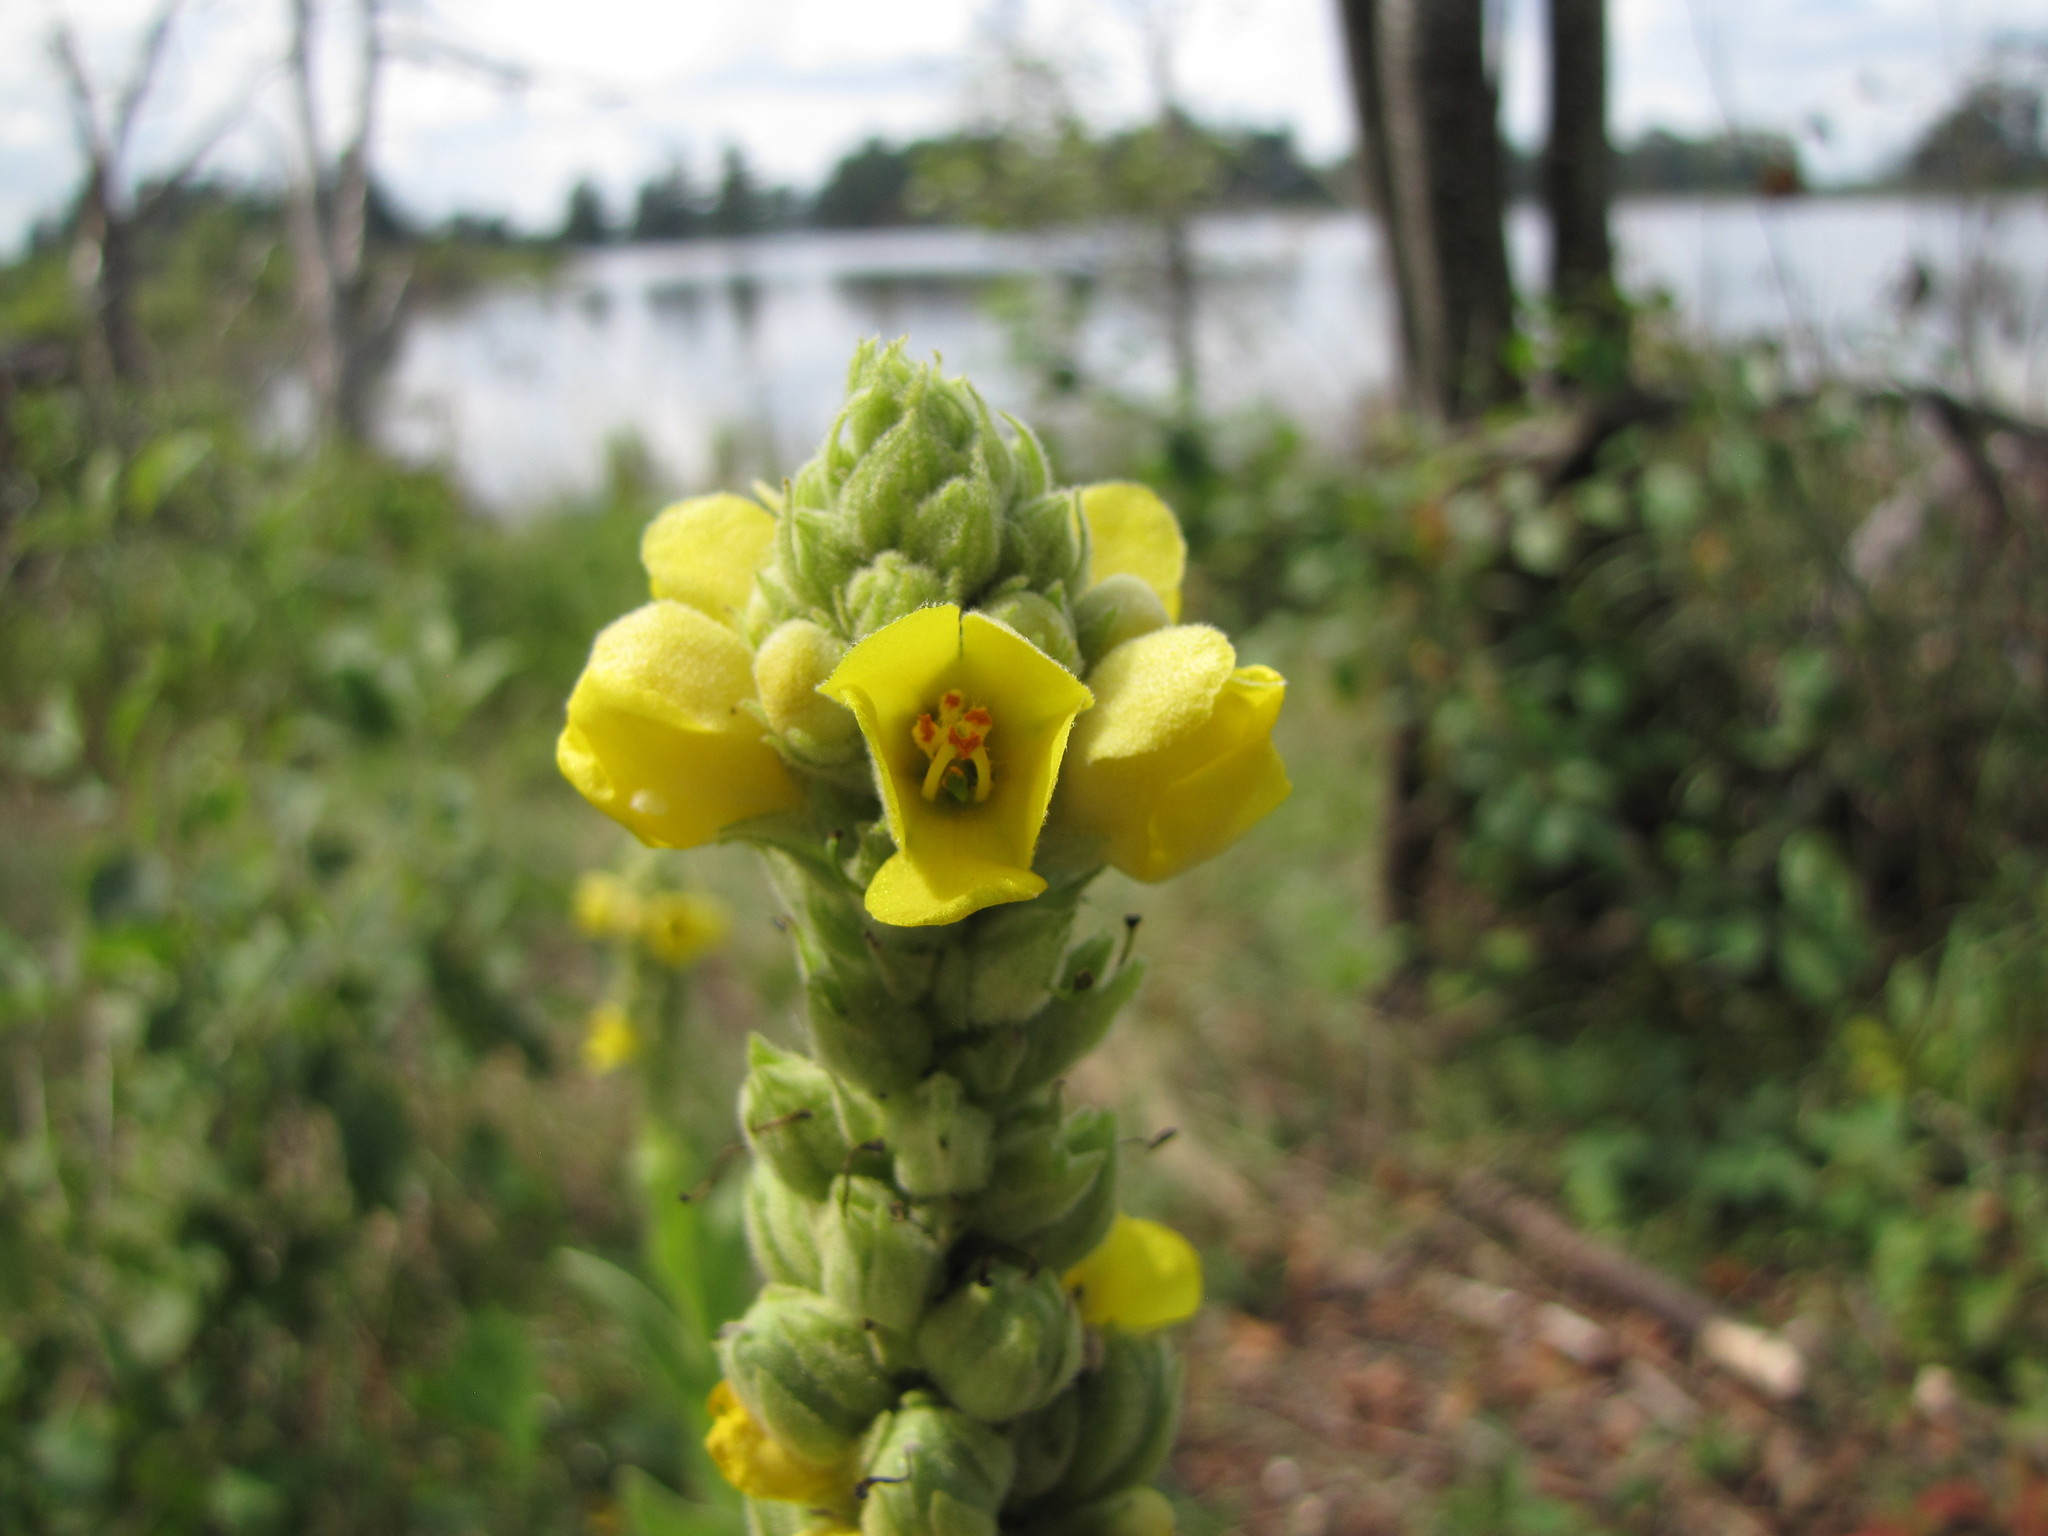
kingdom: Plantae
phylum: Tracheophyta
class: Magnoliopsida
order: Lamiales
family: Scrophulariaceae
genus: Verbascum
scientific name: Verbascum thapsus
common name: Common mullein
